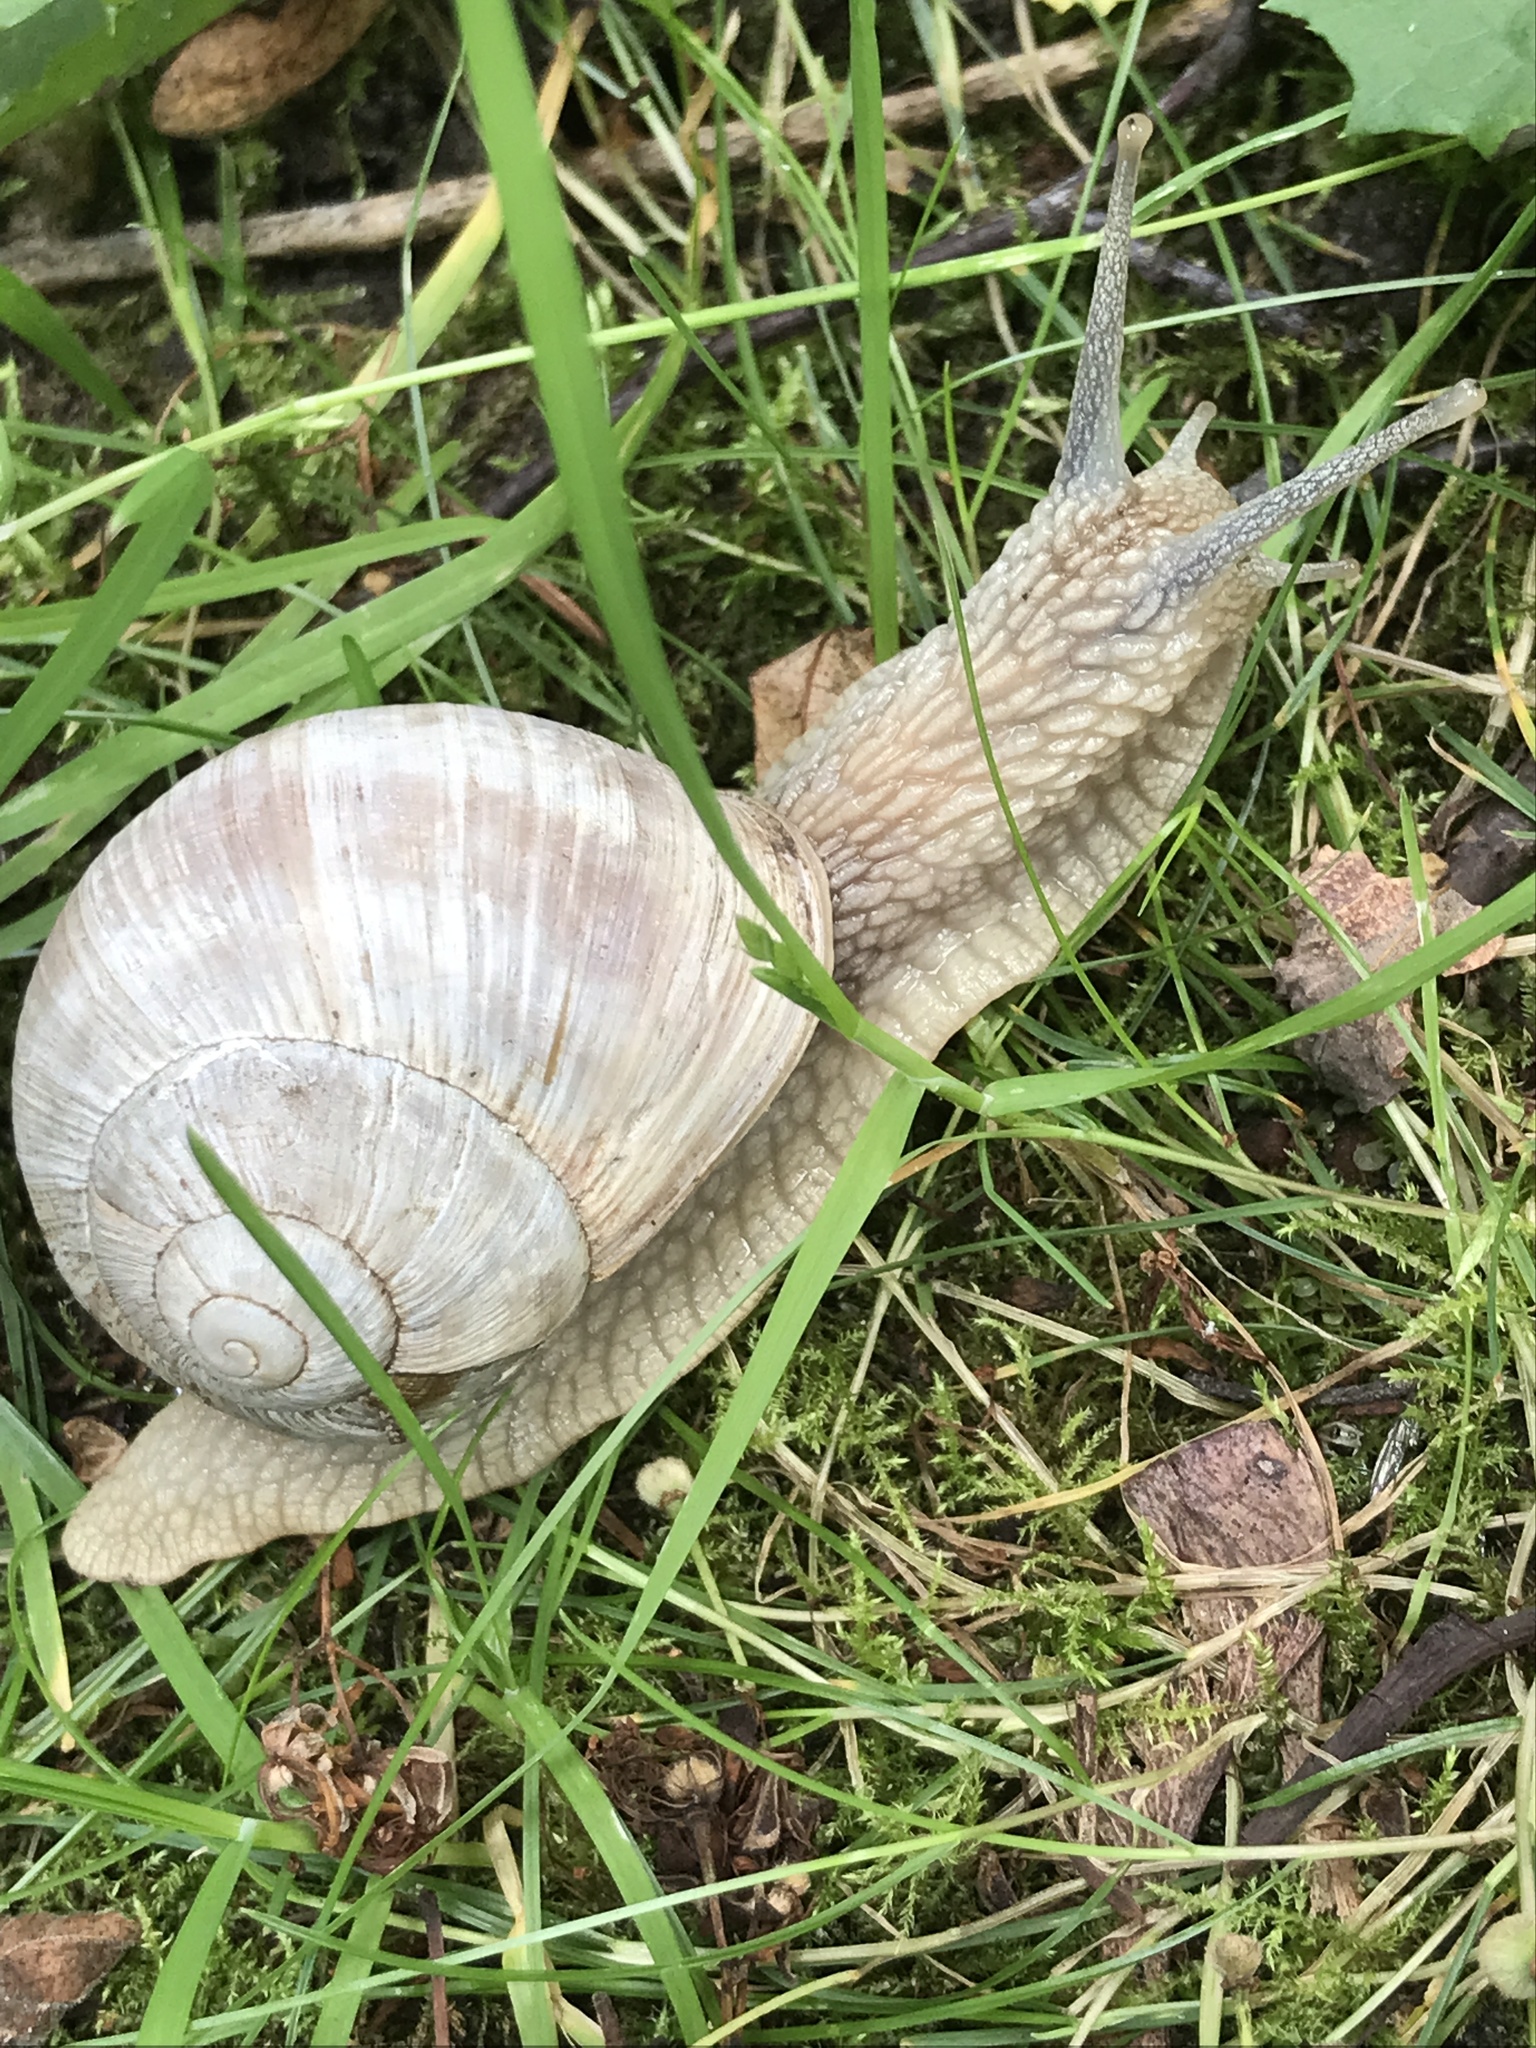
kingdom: Animalia
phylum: Mollusca
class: Gastropoda
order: Stylommatophora
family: Helicidae
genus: Helix
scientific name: Helix pomatia
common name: Roman snail
